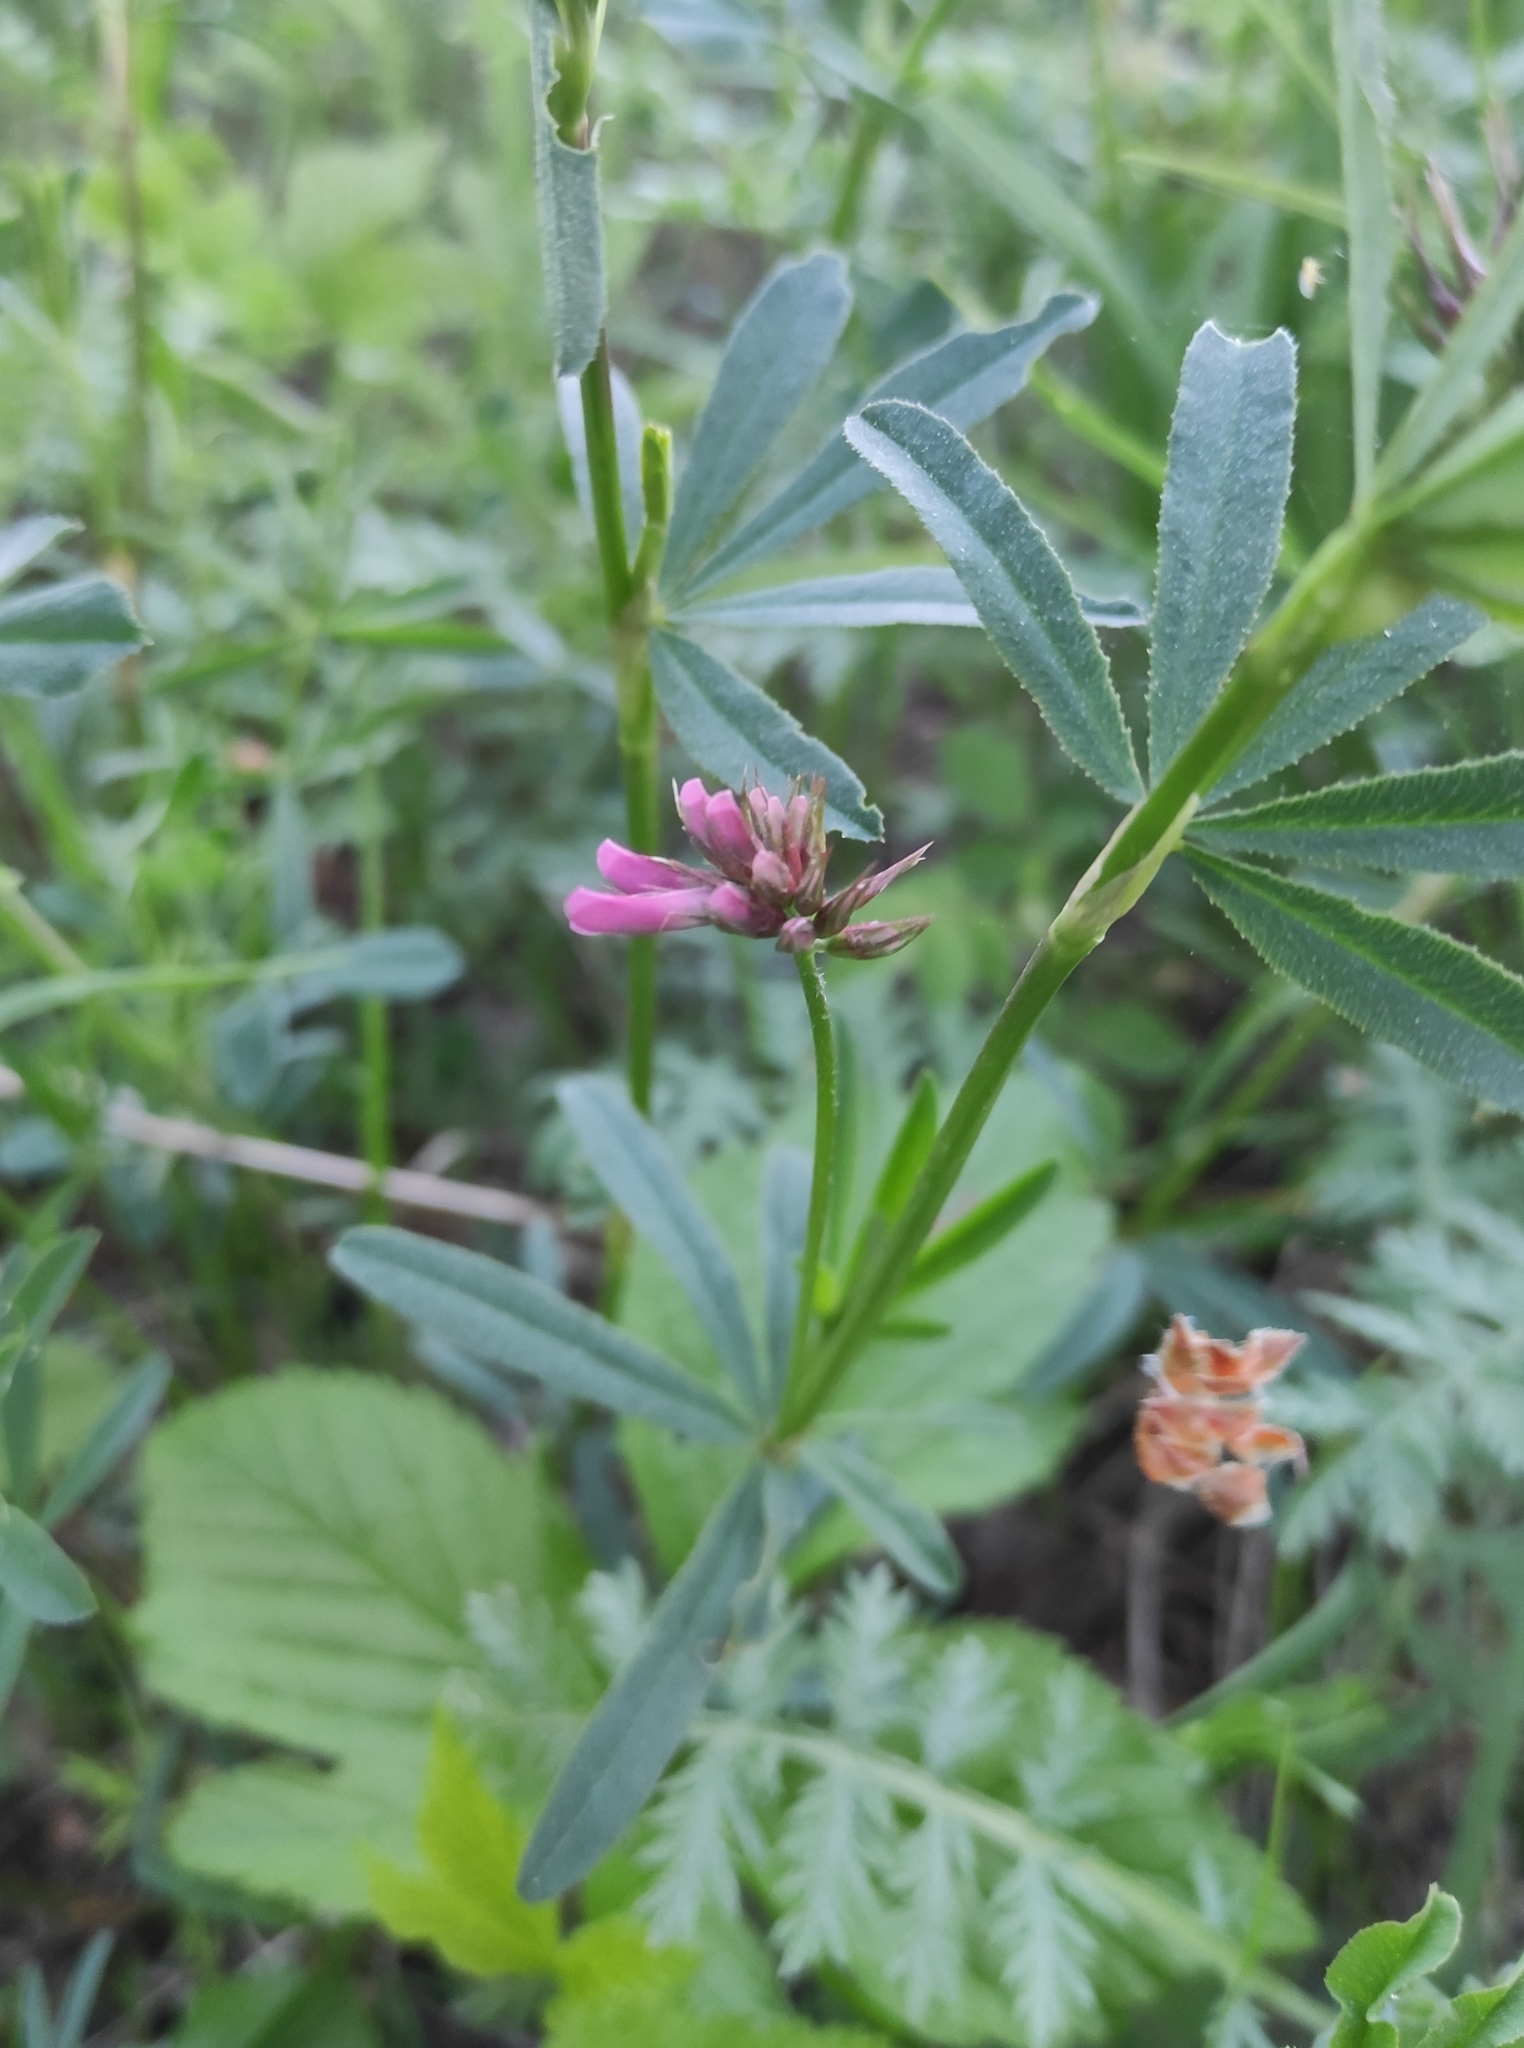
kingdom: Plantae
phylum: Tracheophyta
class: Magnoliopsida
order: Fabales
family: Fabaceae
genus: Trifolium
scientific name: Trifolium lupinaster
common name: Lupine clover
